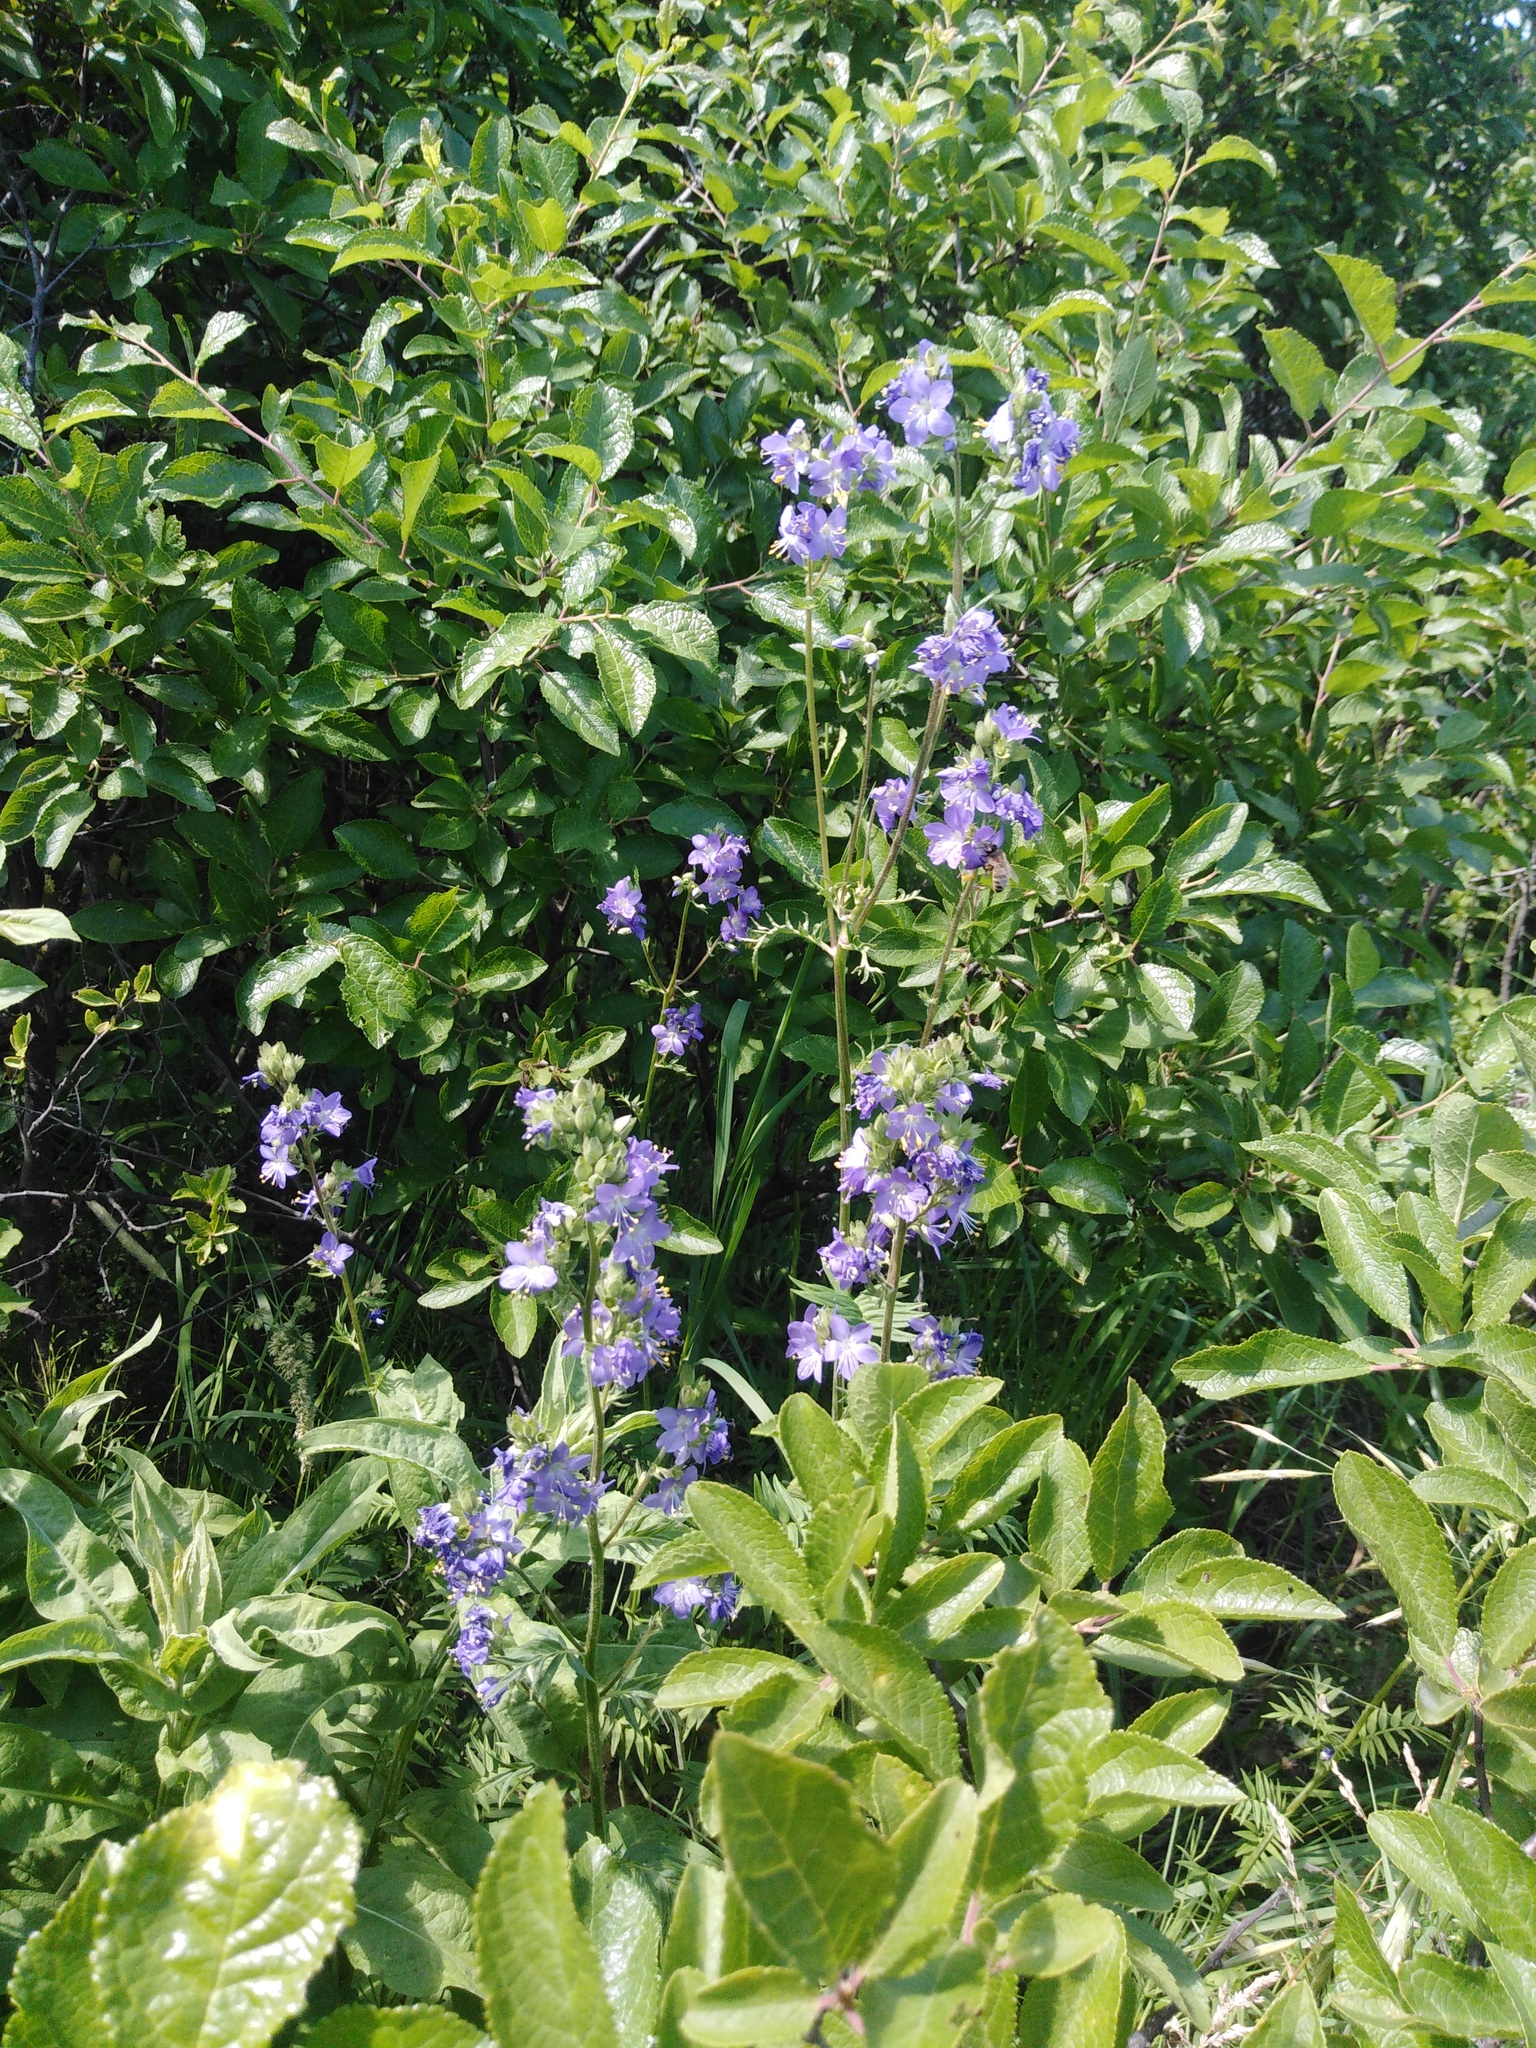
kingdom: Plantae
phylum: Tracheophyta
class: Magnoliopsida
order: Ericales
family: Polemoniaceae
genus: Polemonium
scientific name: Polemonium caeruleum
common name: Jacob's-ladder
